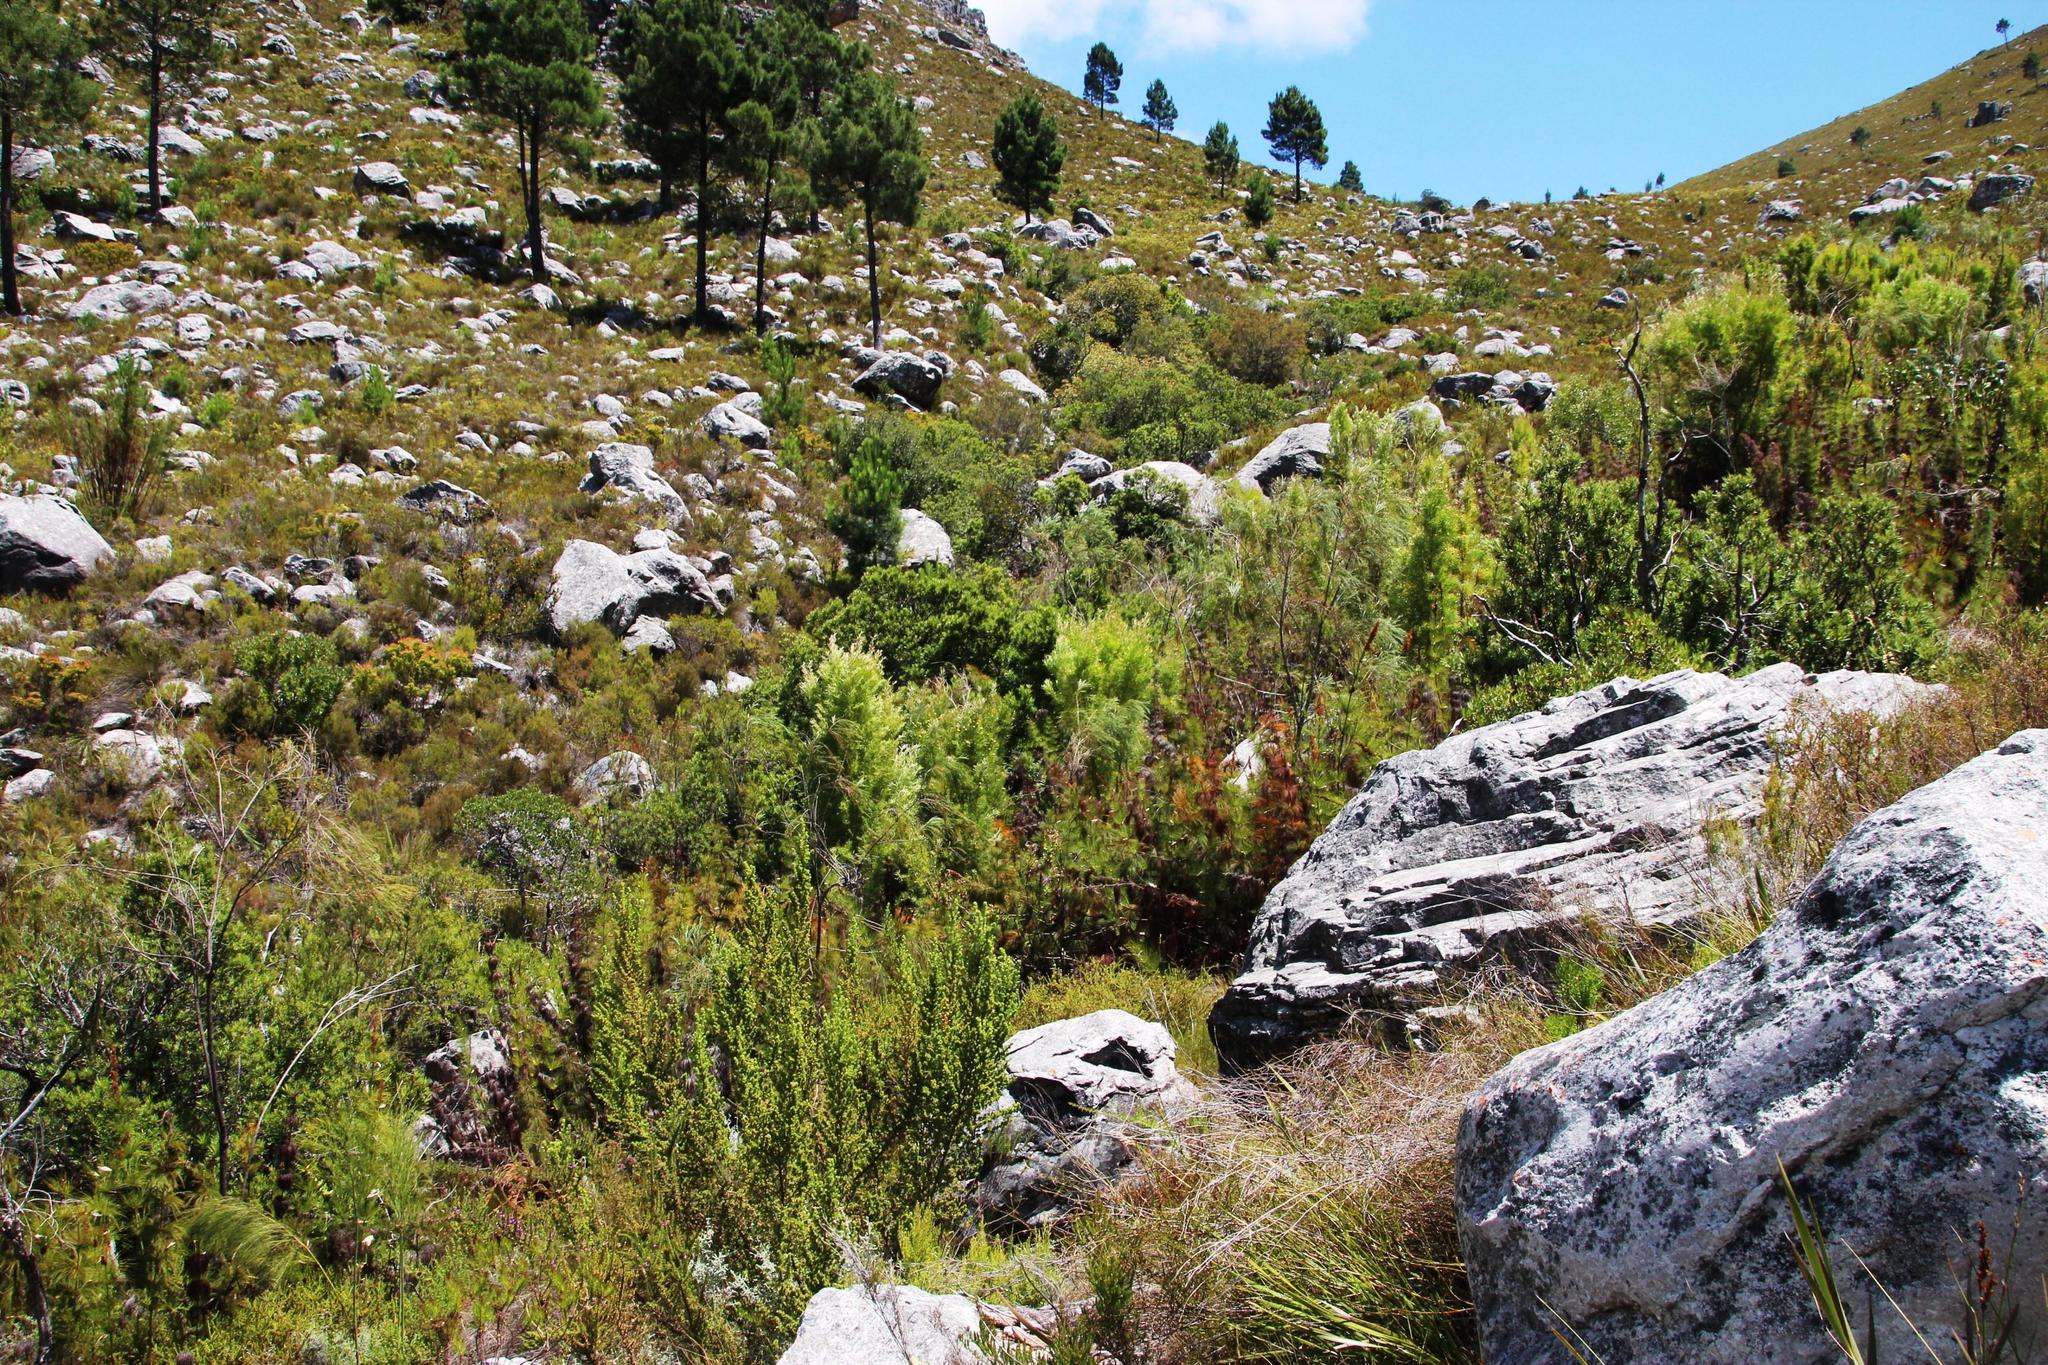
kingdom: Plantae
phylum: Tracheophyta
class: Magnoliopsida
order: Proteales
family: Proteaceae
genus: Leucadendron
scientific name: Leucadendron salicifolium
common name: Common stream conebush
